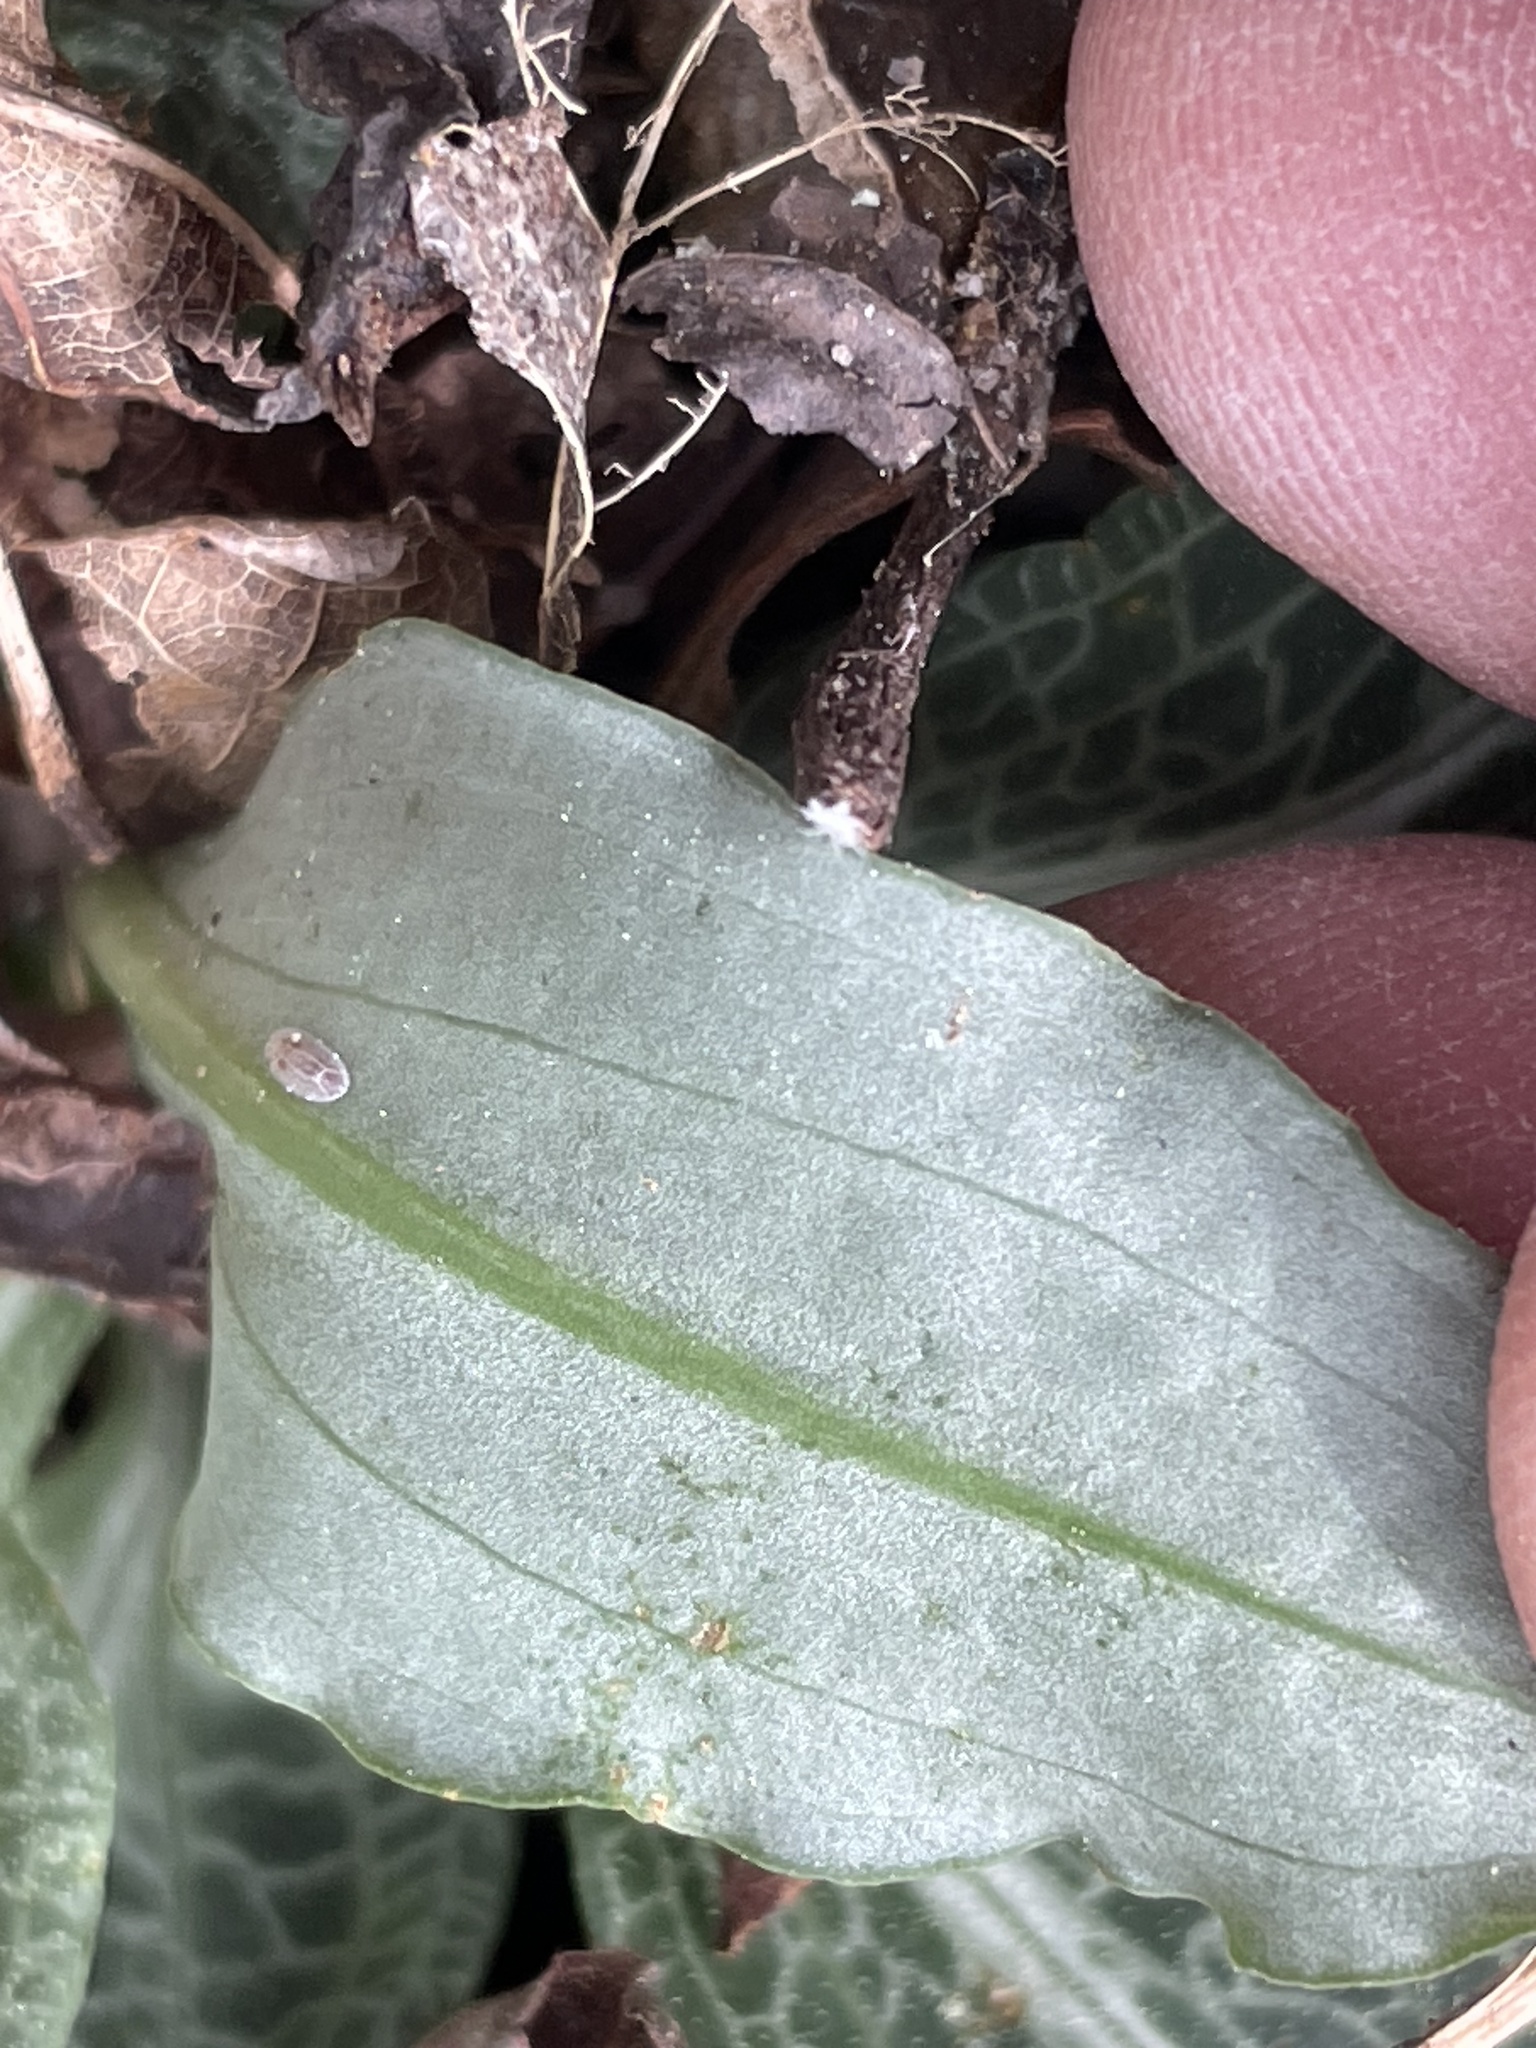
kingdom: Plantae
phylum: Tracheophyta
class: Liliopsida
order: Asparagales
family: Orchidaceae
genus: Goodyera
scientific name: Goodyera pubescens
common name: Downy rattlesnake-plantain
